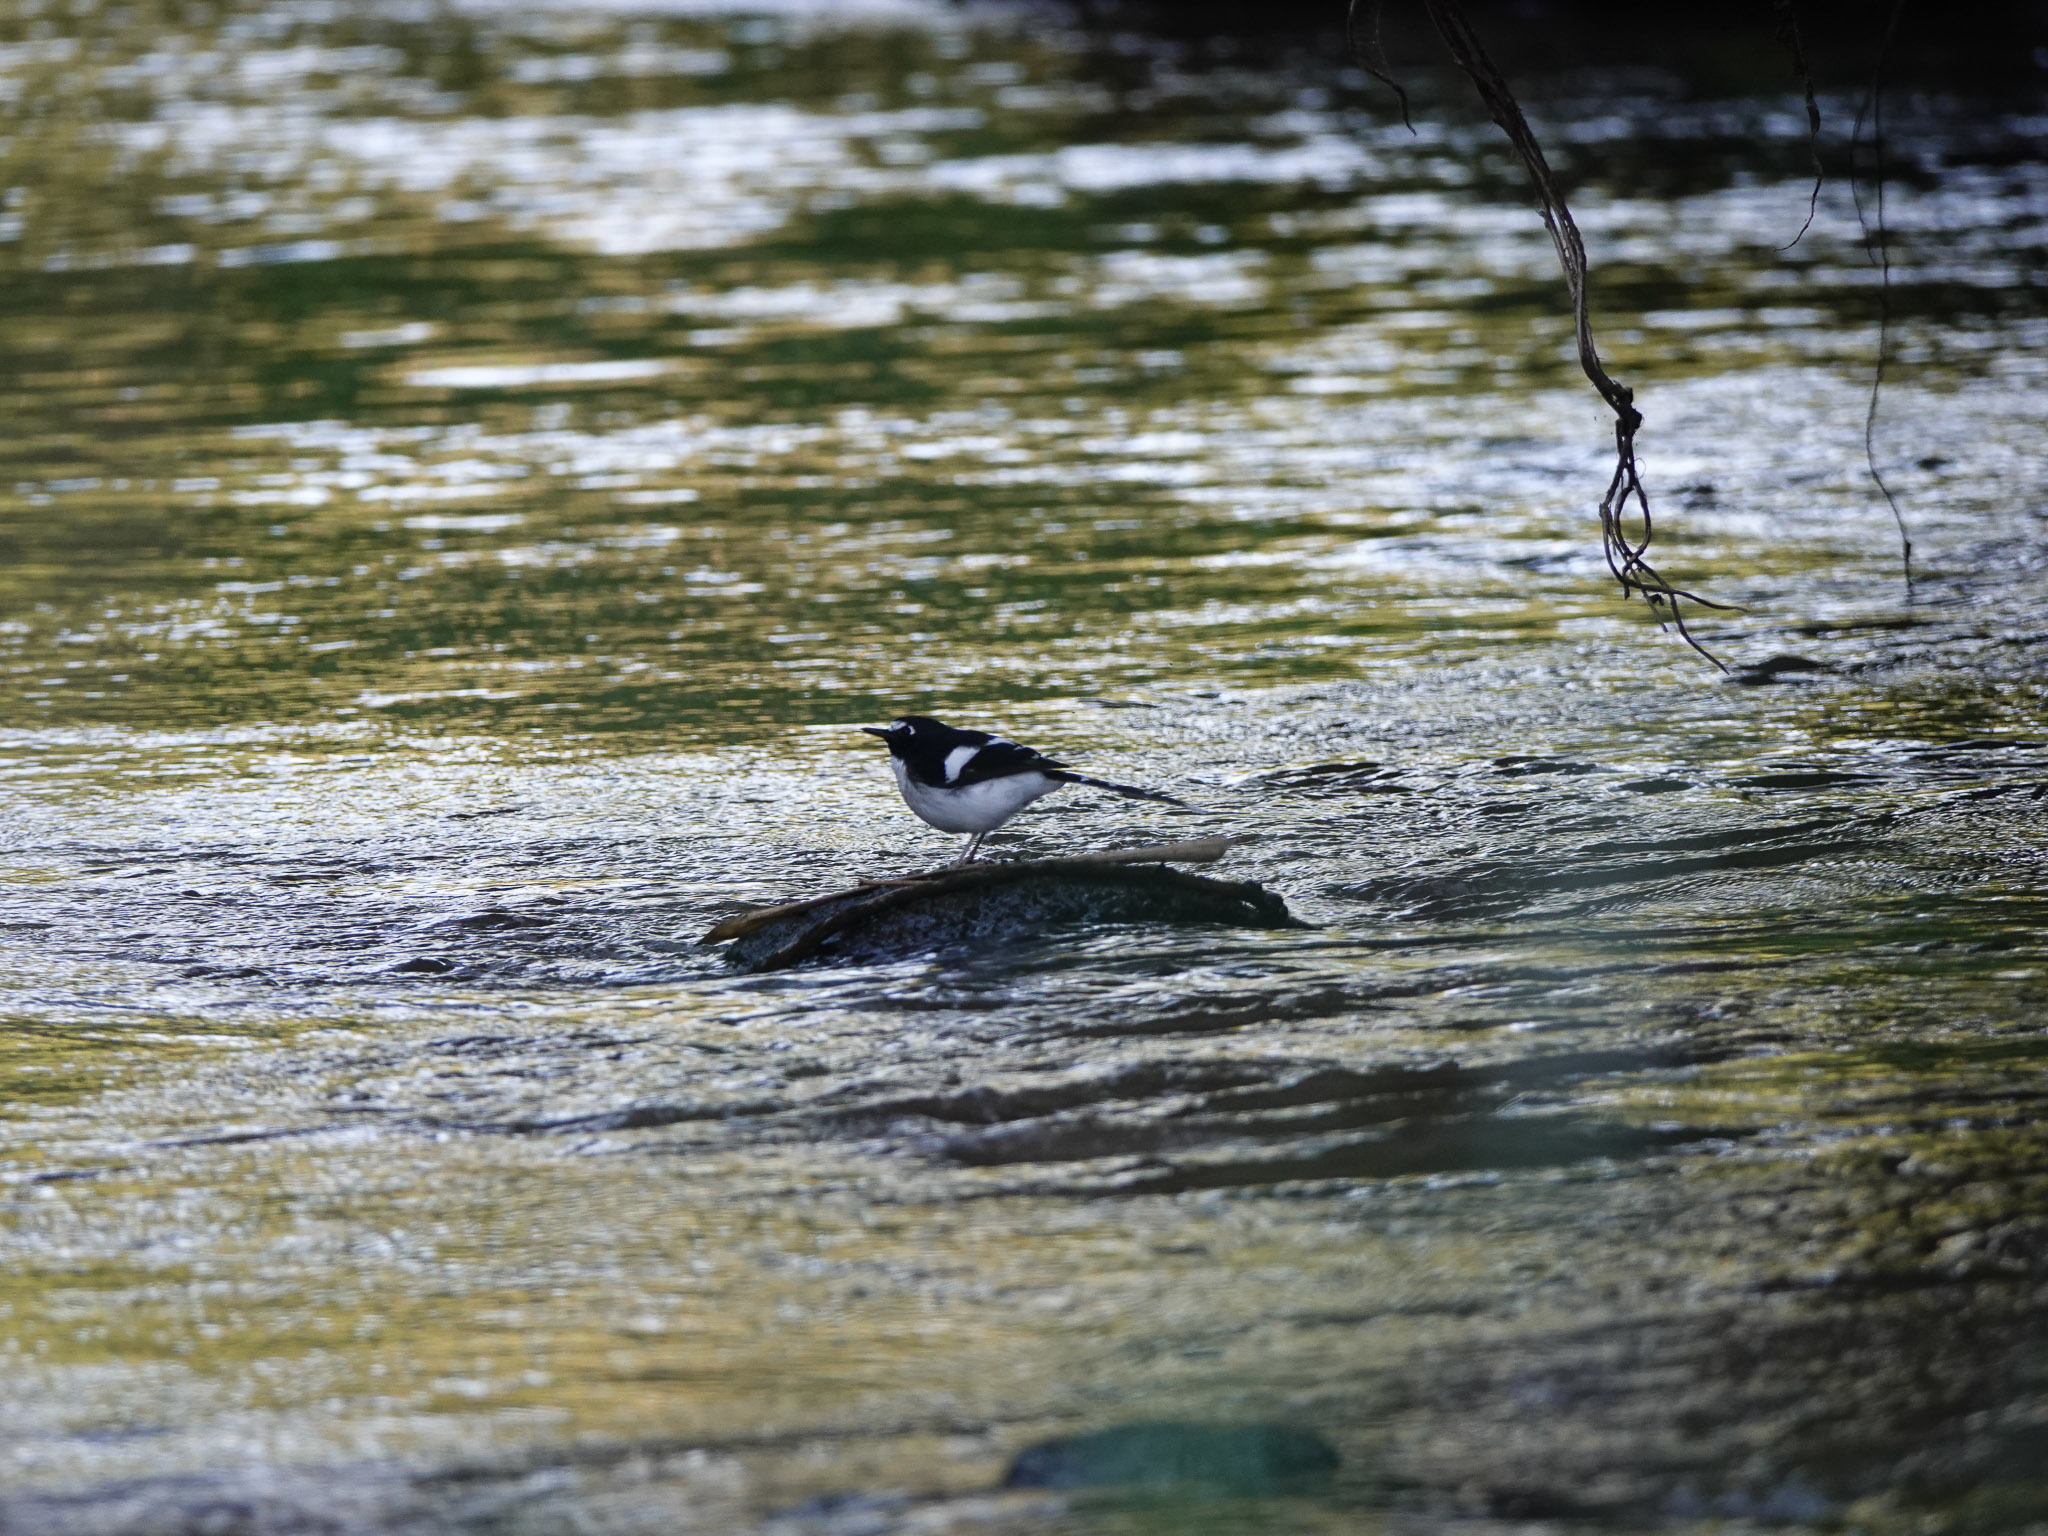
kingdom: Animalia
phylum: Chordata
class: Aves
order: Passeriformes
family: Muscicapidae
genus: Enicurus
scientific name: Enicurus immaculatus
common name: Black-backed forktail
